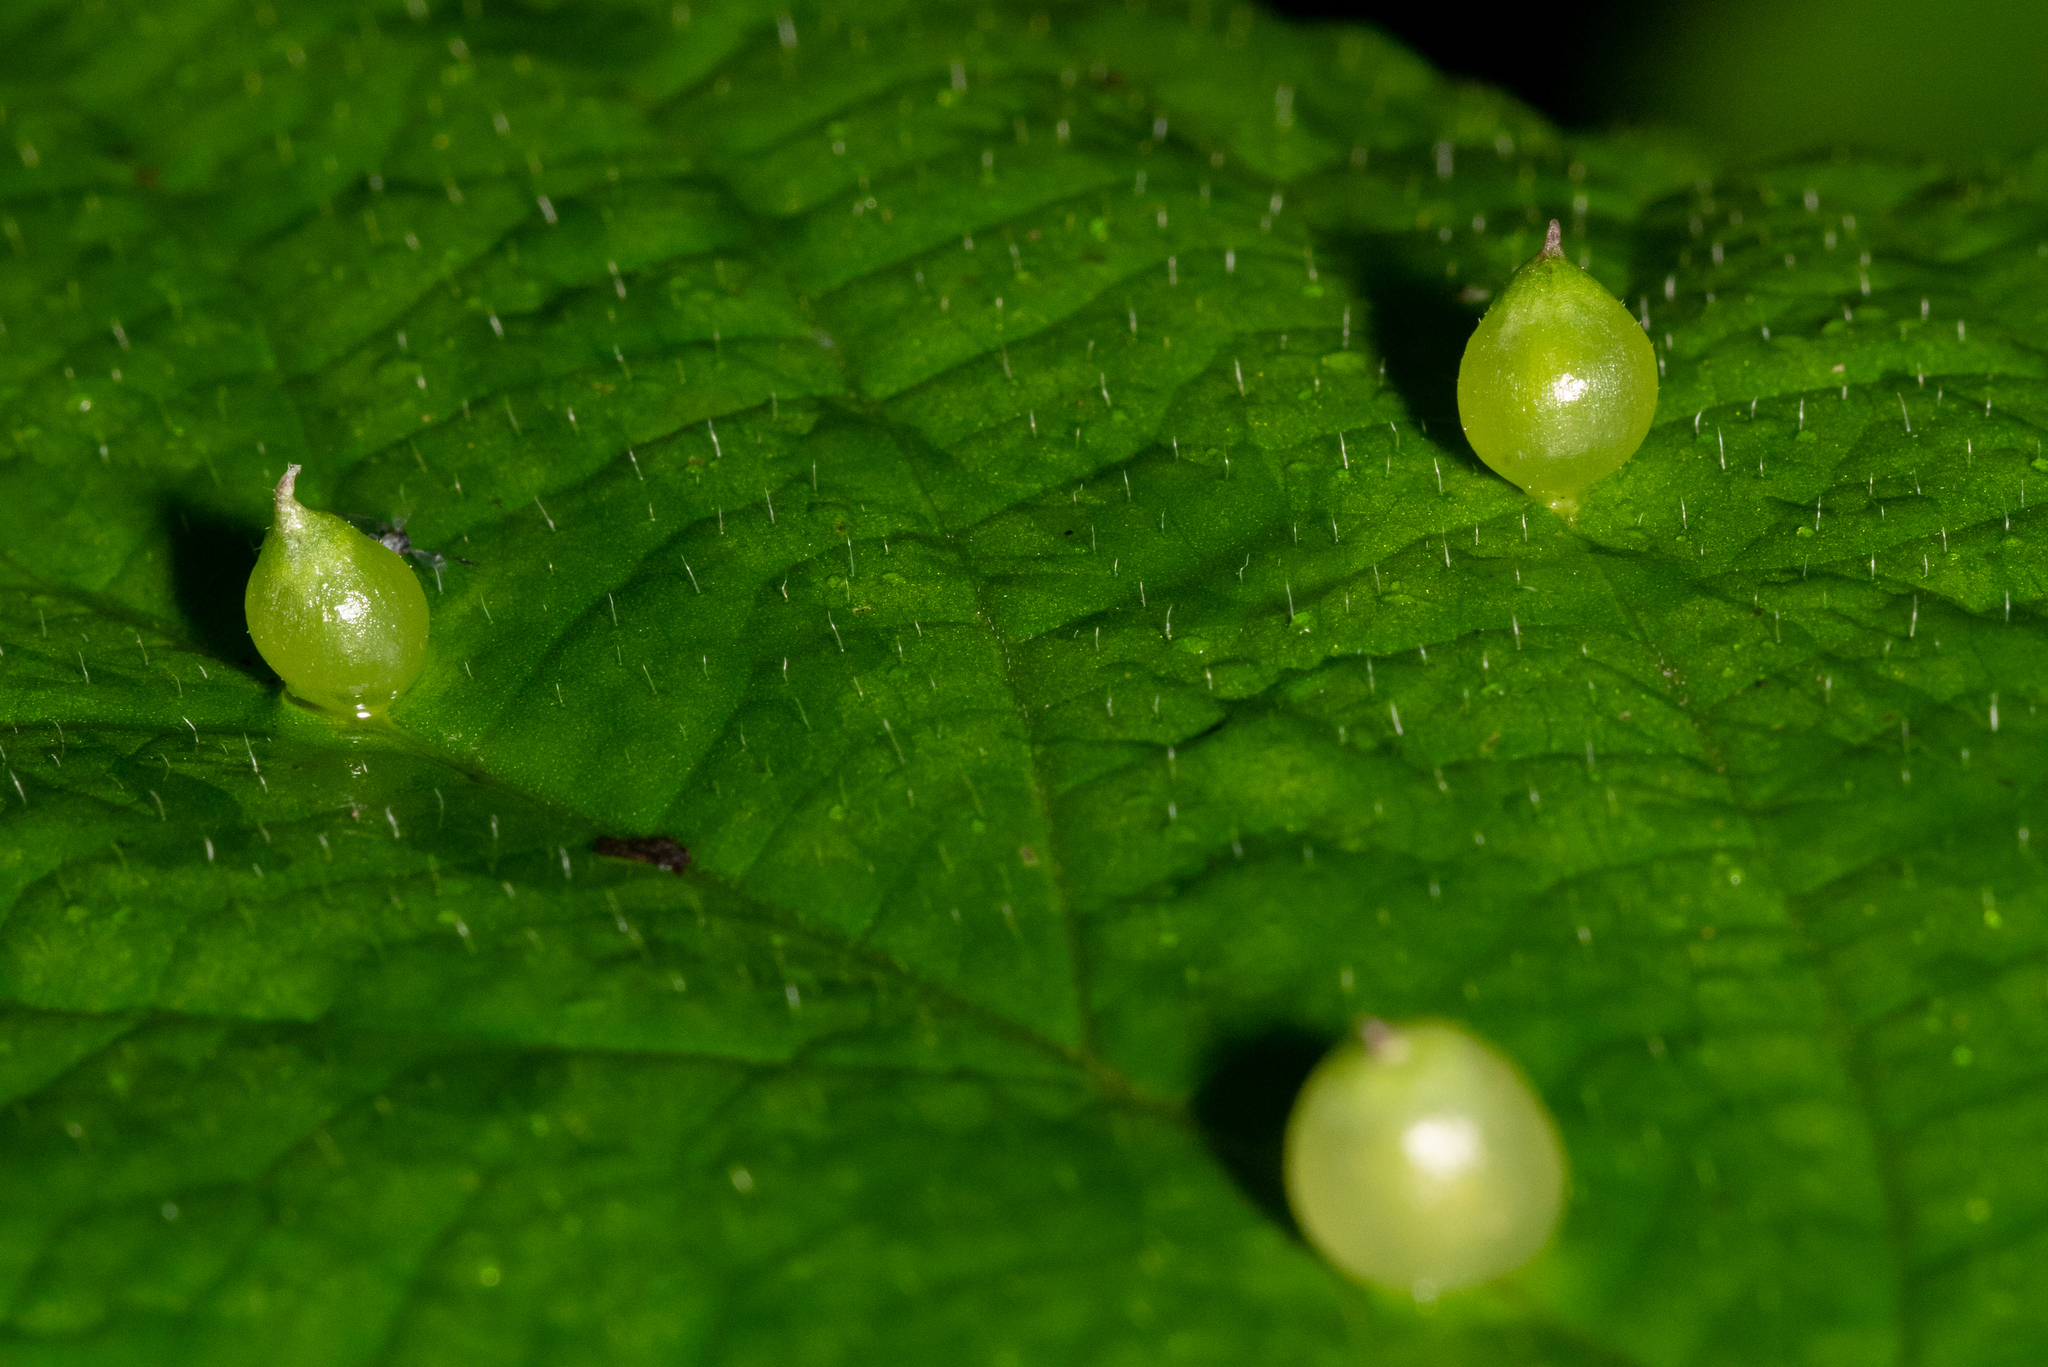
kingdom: Animalia
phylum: Arthropoda
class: Insecta
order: Diptera
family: Cecidomyiidae
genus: Dasineura
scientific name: Dasineura investita
